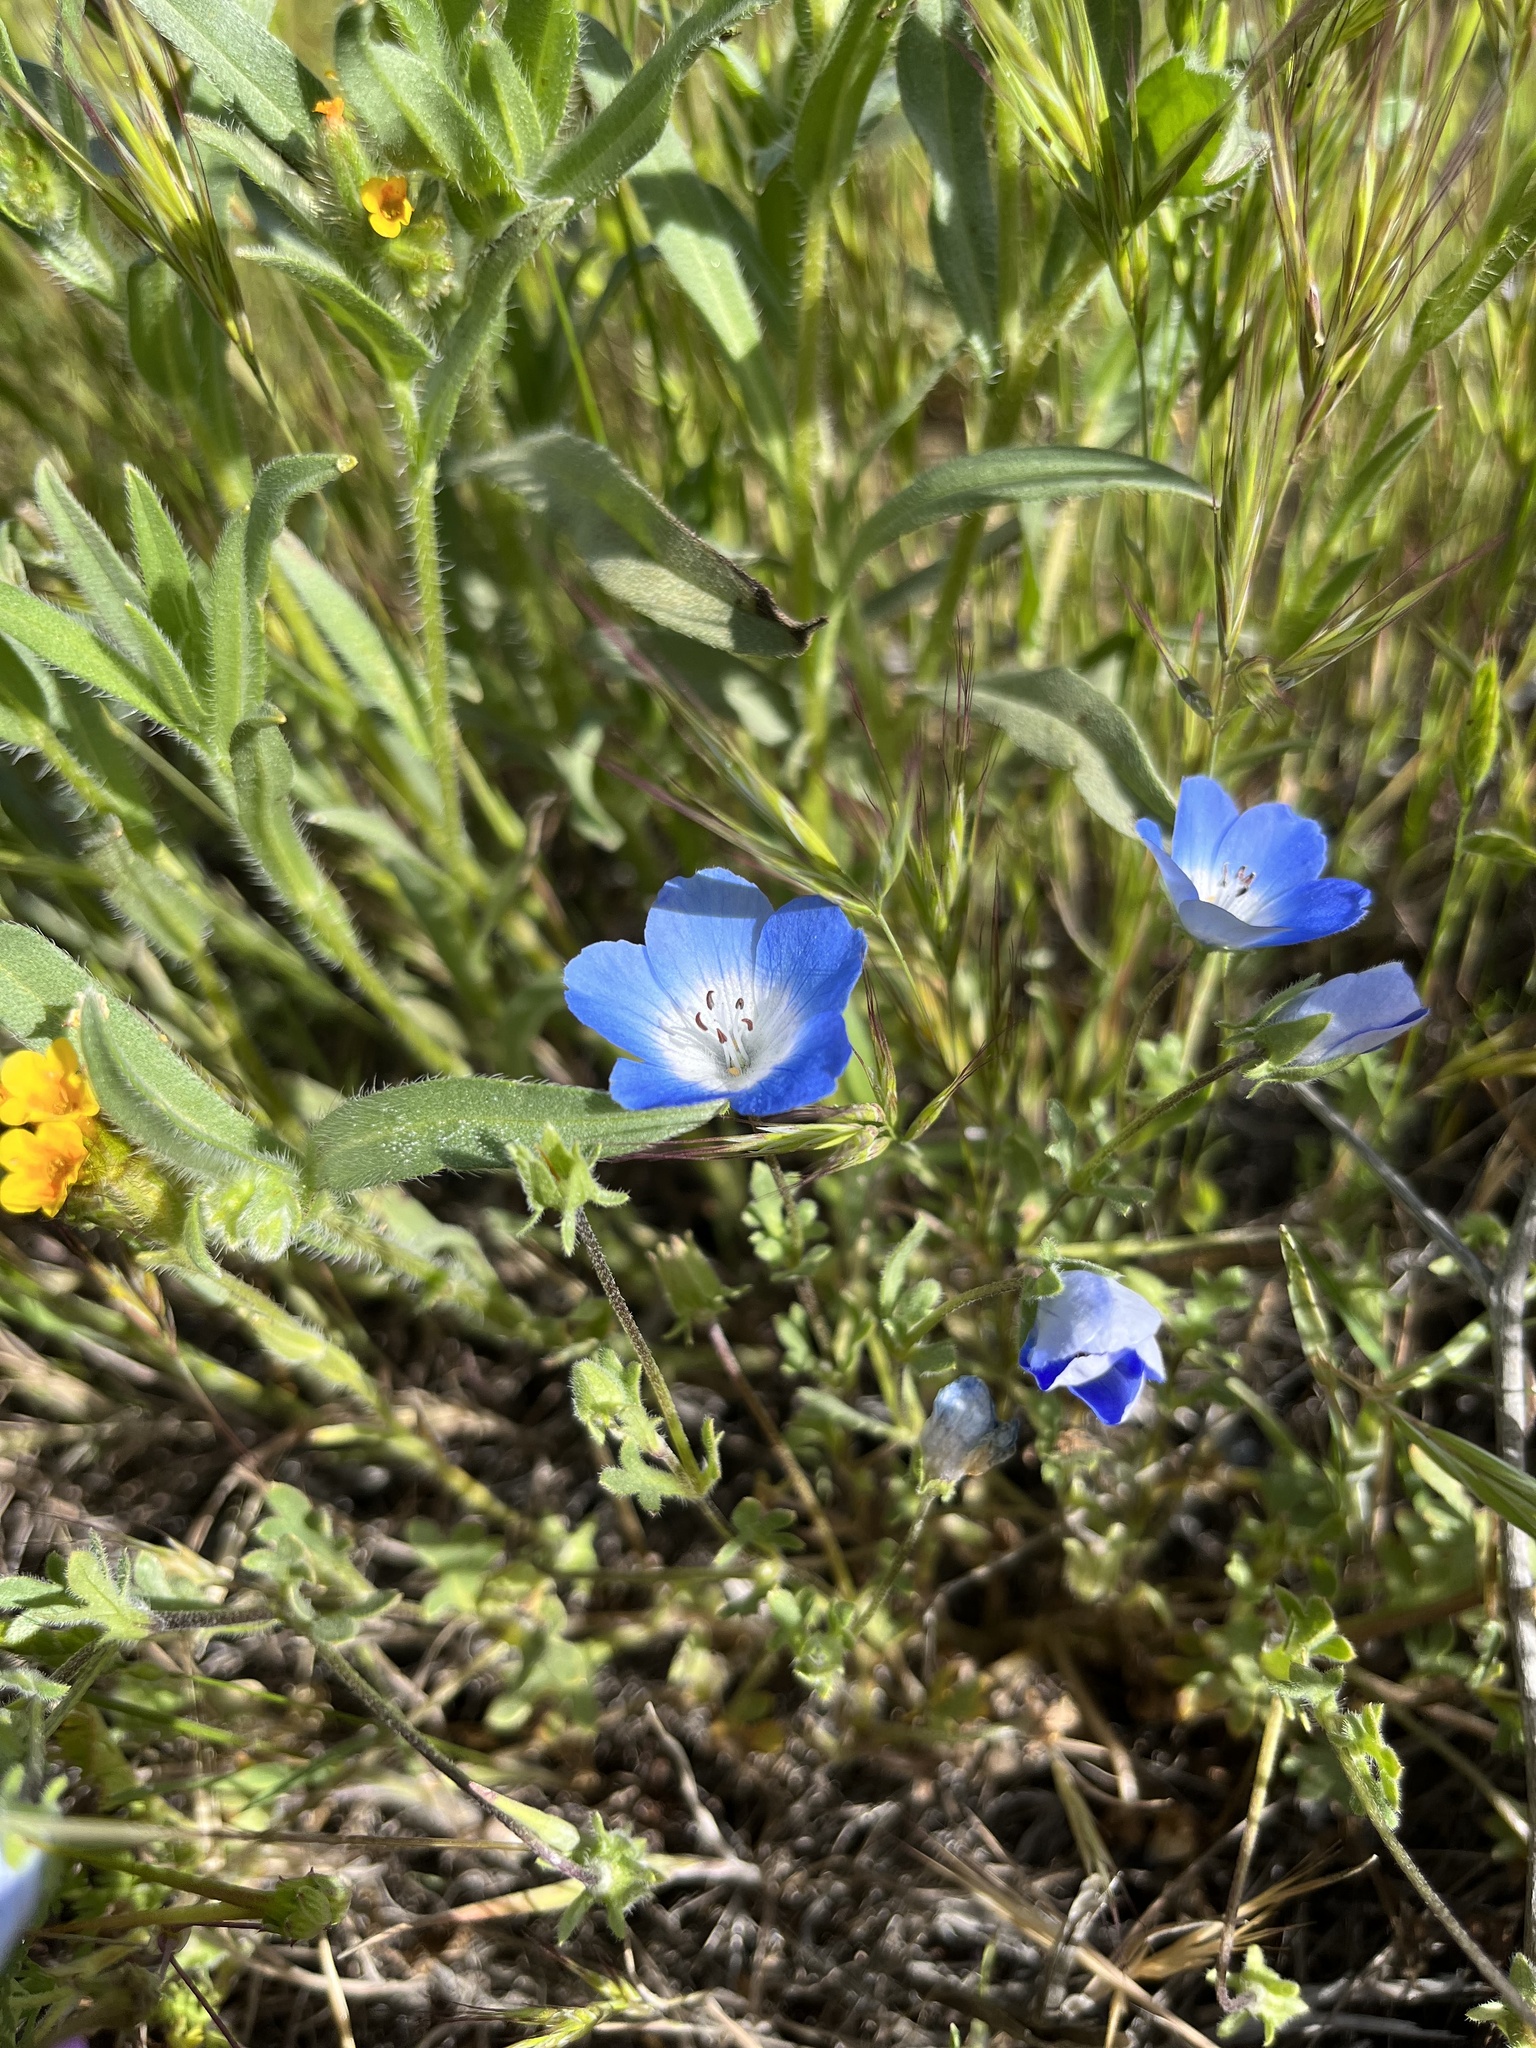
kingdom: Plantae
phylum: Tracheophyta
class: Magnoliopsida
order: Boraginales
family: Hydrophyllaceae
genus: Nemophila
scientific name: Nemophila menziesii
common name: Baby's-blue-eyes
